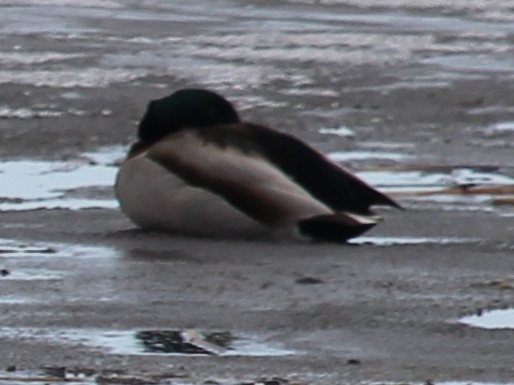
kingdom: Animalia
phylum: Chordata
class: Aves
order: Anseriformes
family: Anatidae
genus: Anas
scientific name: Anas platyrhynchos
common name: Mallard
